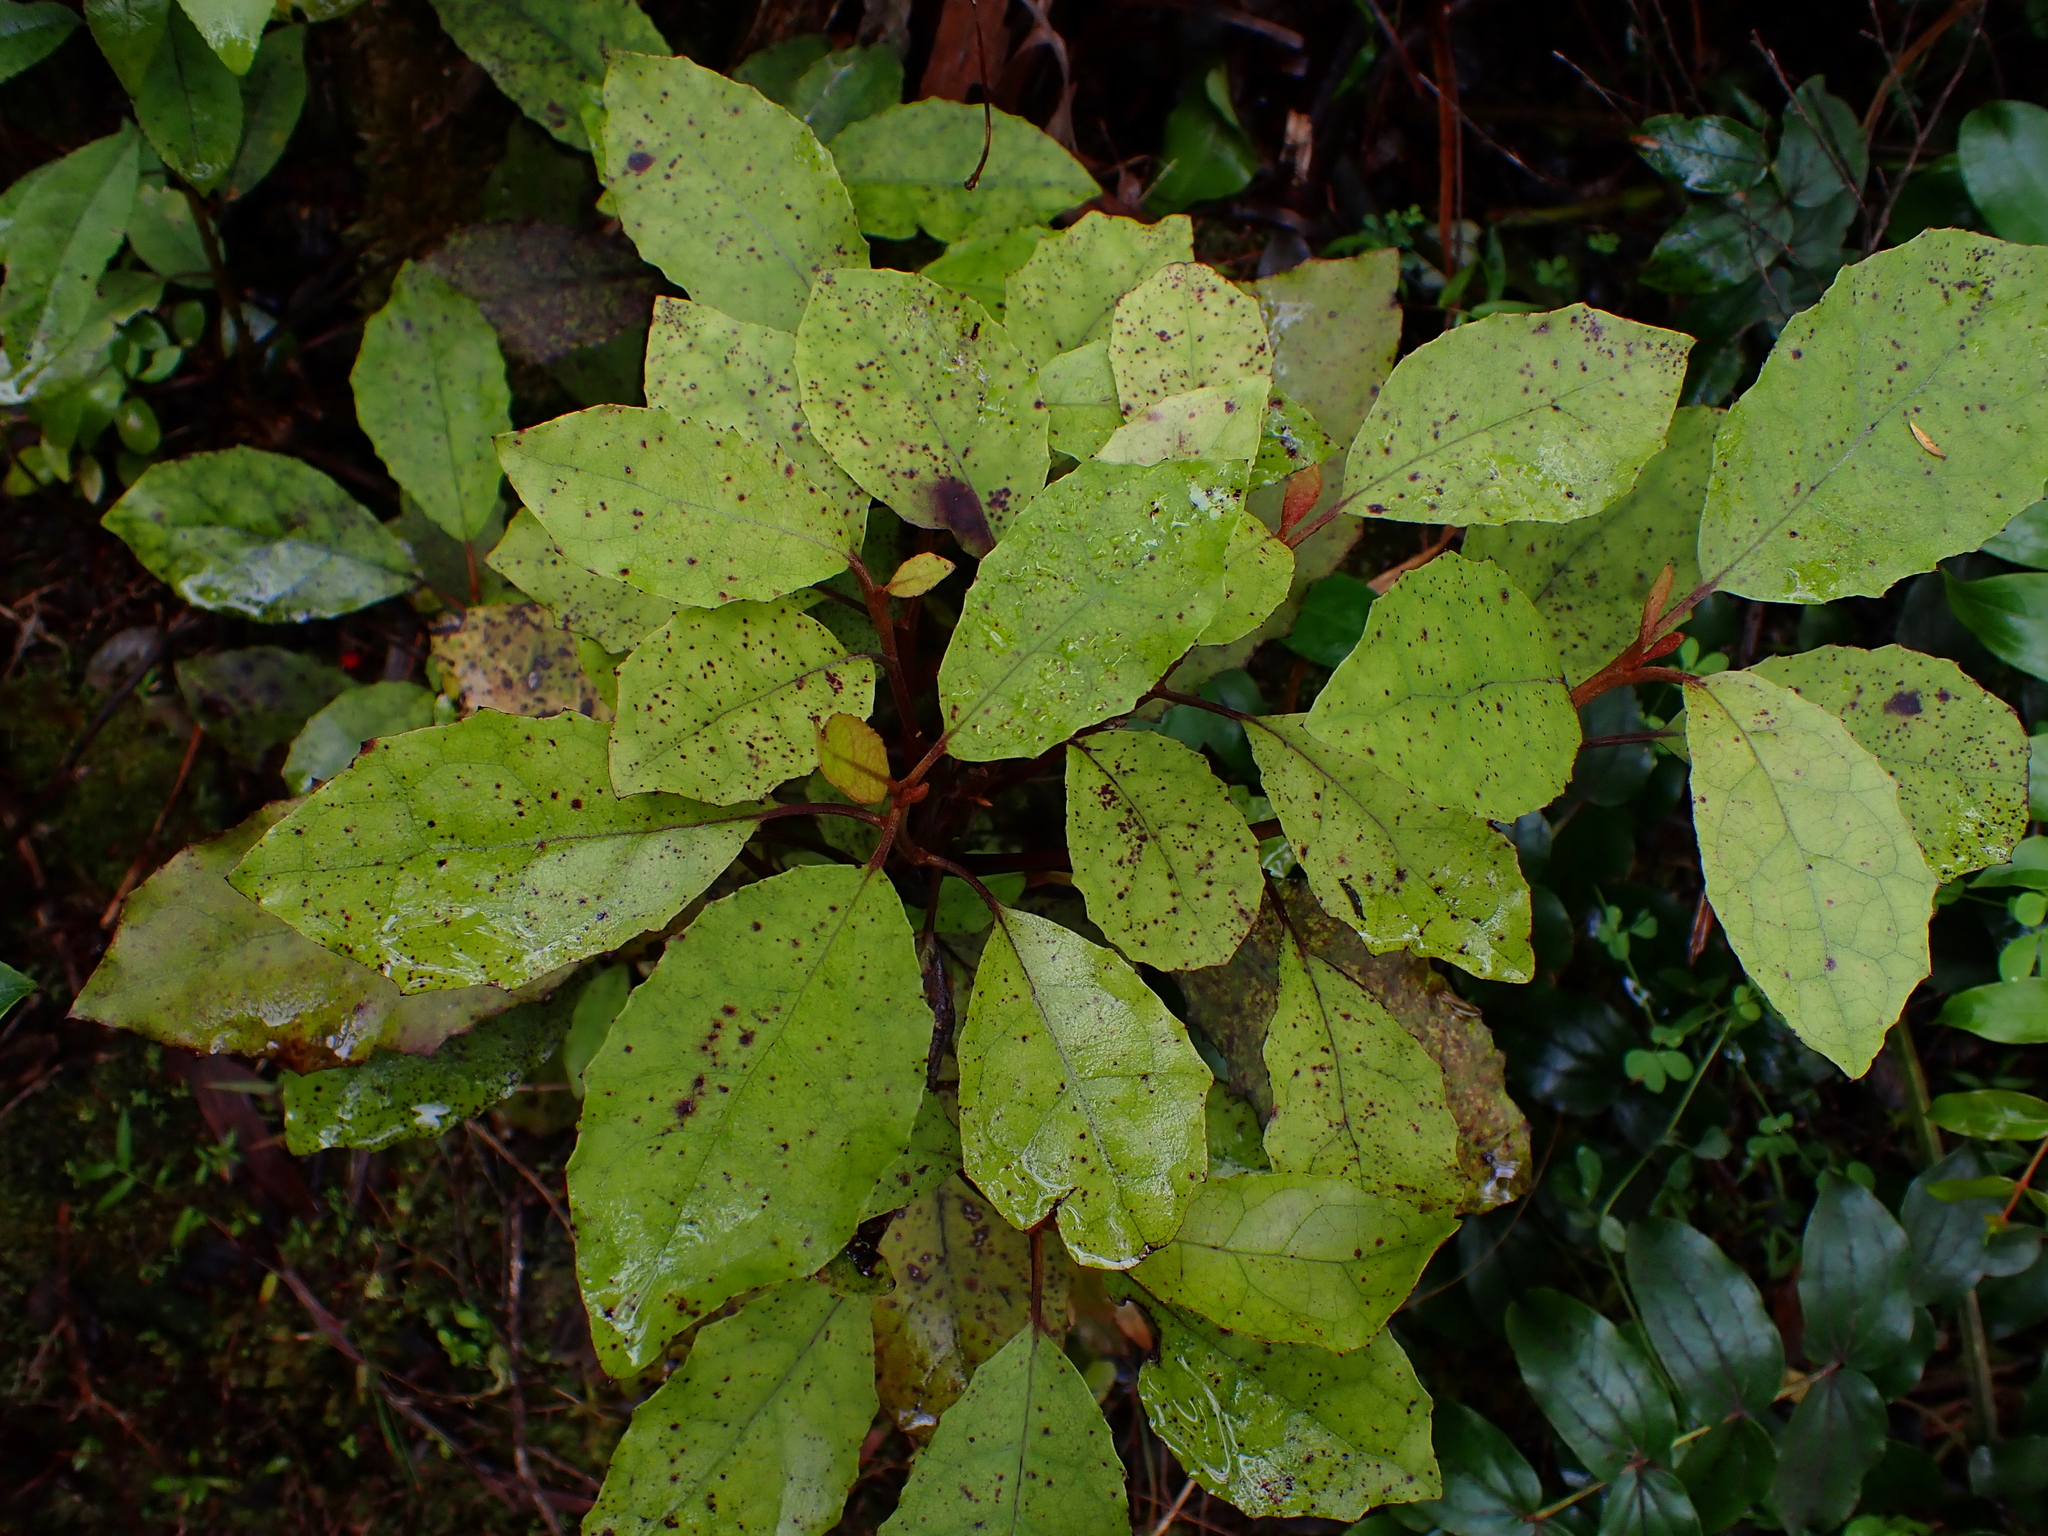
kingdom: Plantae
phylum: Tracheophyta
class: Magnoliopsida
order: Asterales
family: Asteraceae
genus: Olearia
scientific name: Olearia rani
